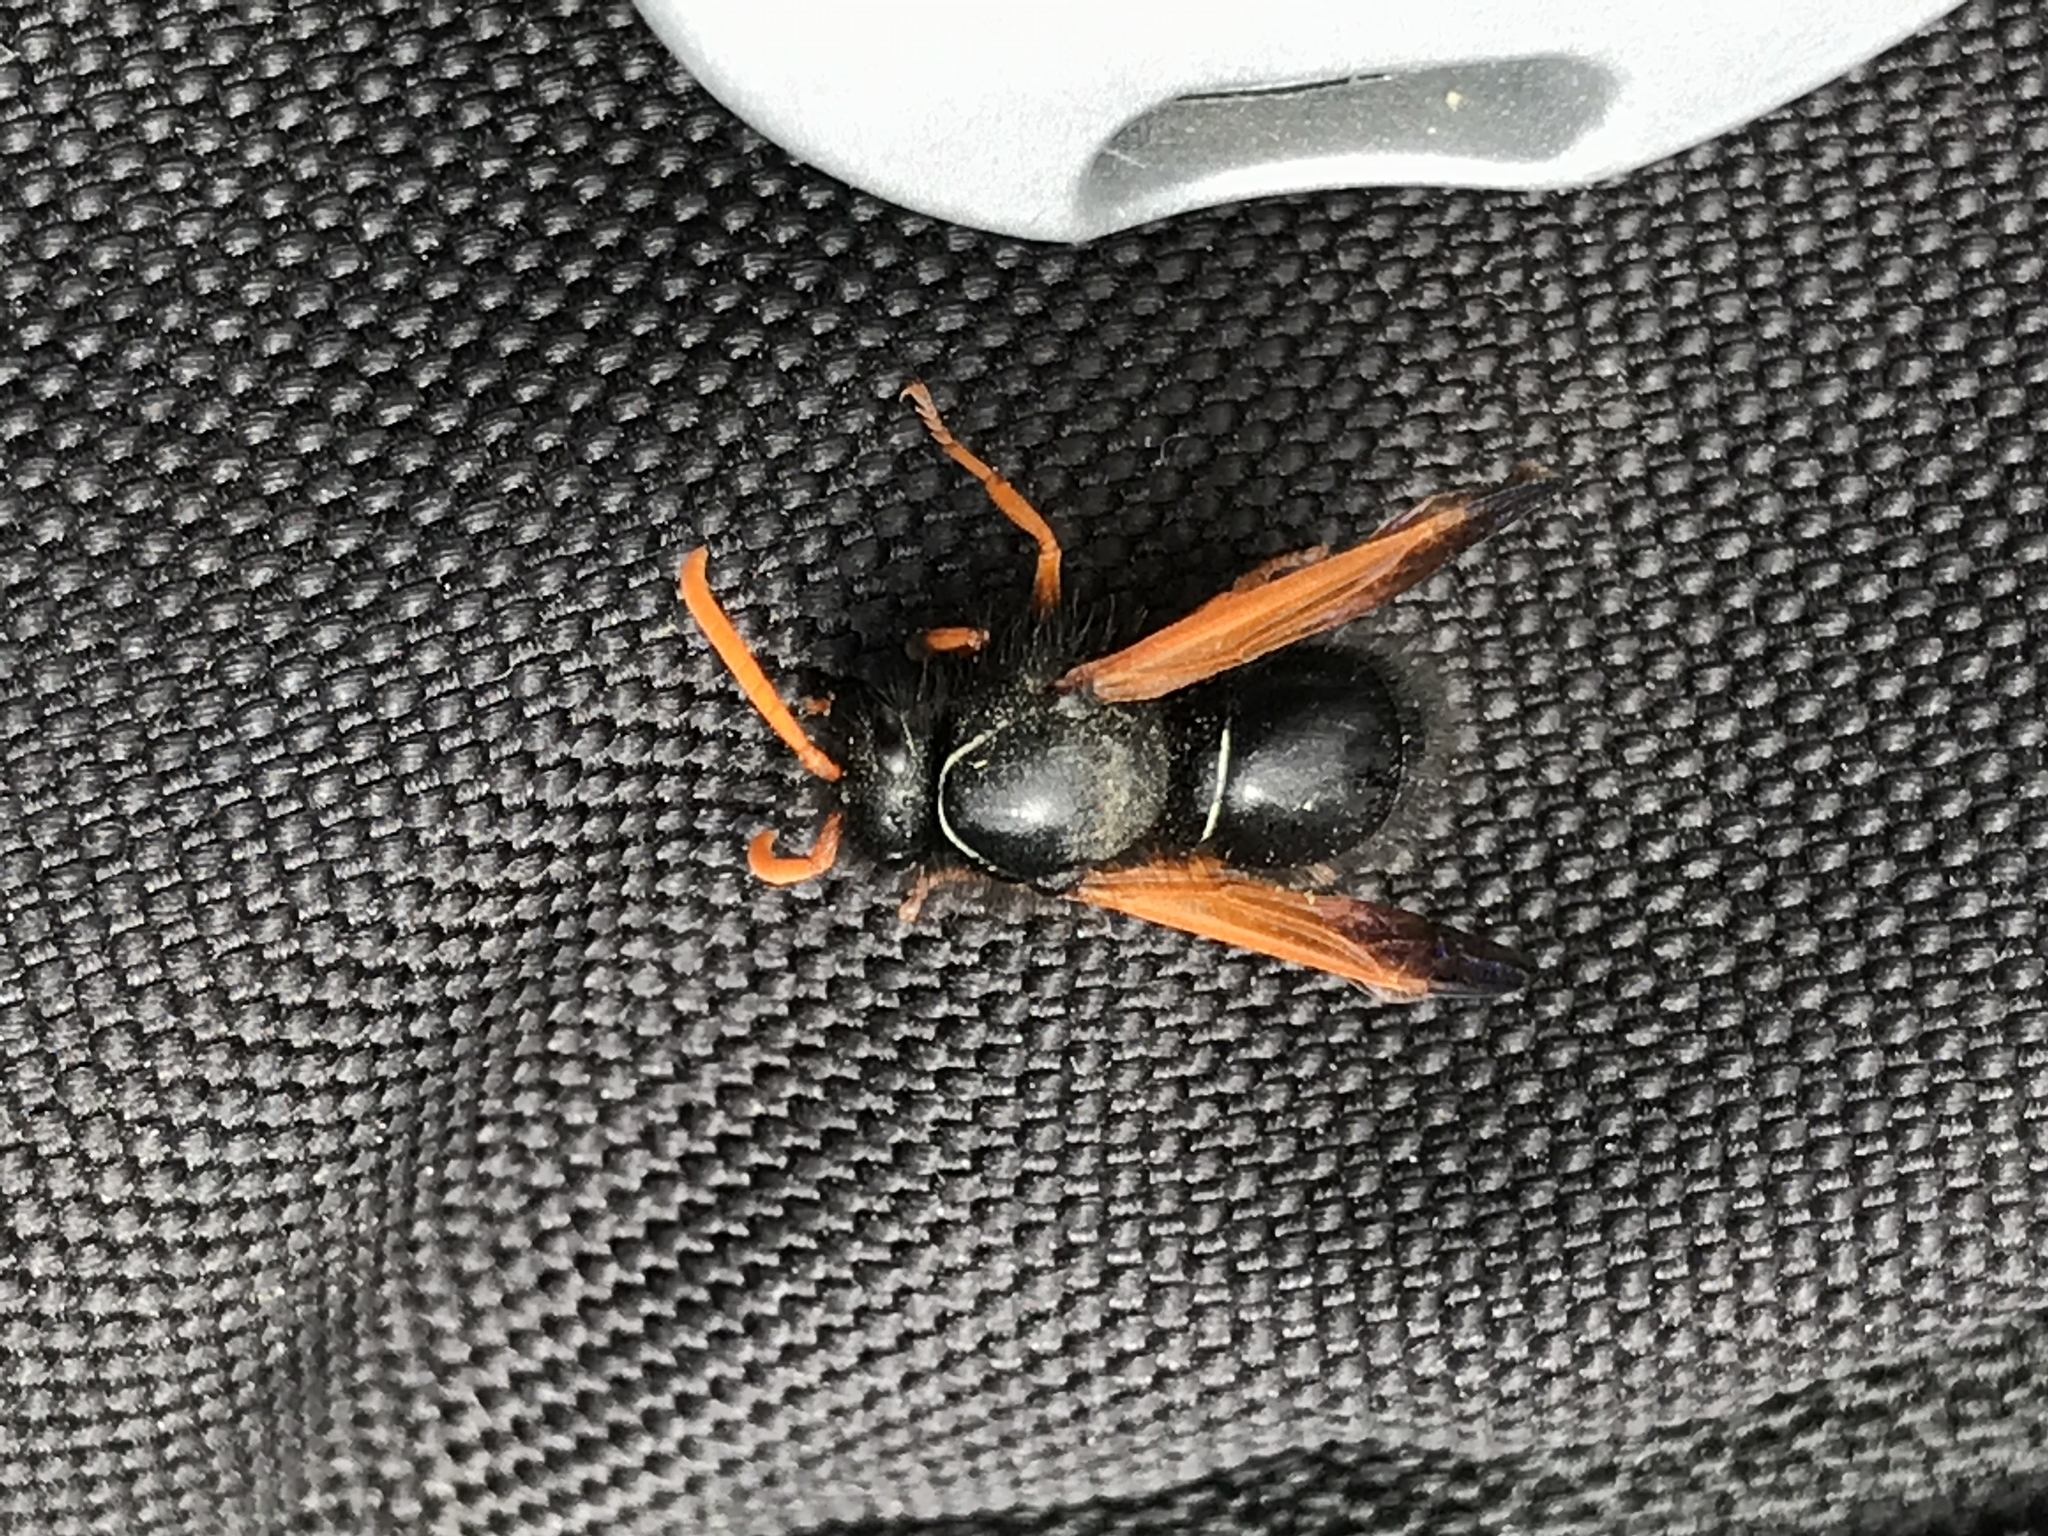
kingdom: Animalia
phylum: Arthropoda
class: Insecta
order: Hymenoptera
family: Vespidae
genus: Hypodynerus
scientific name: Hypodynerus vespiformis
